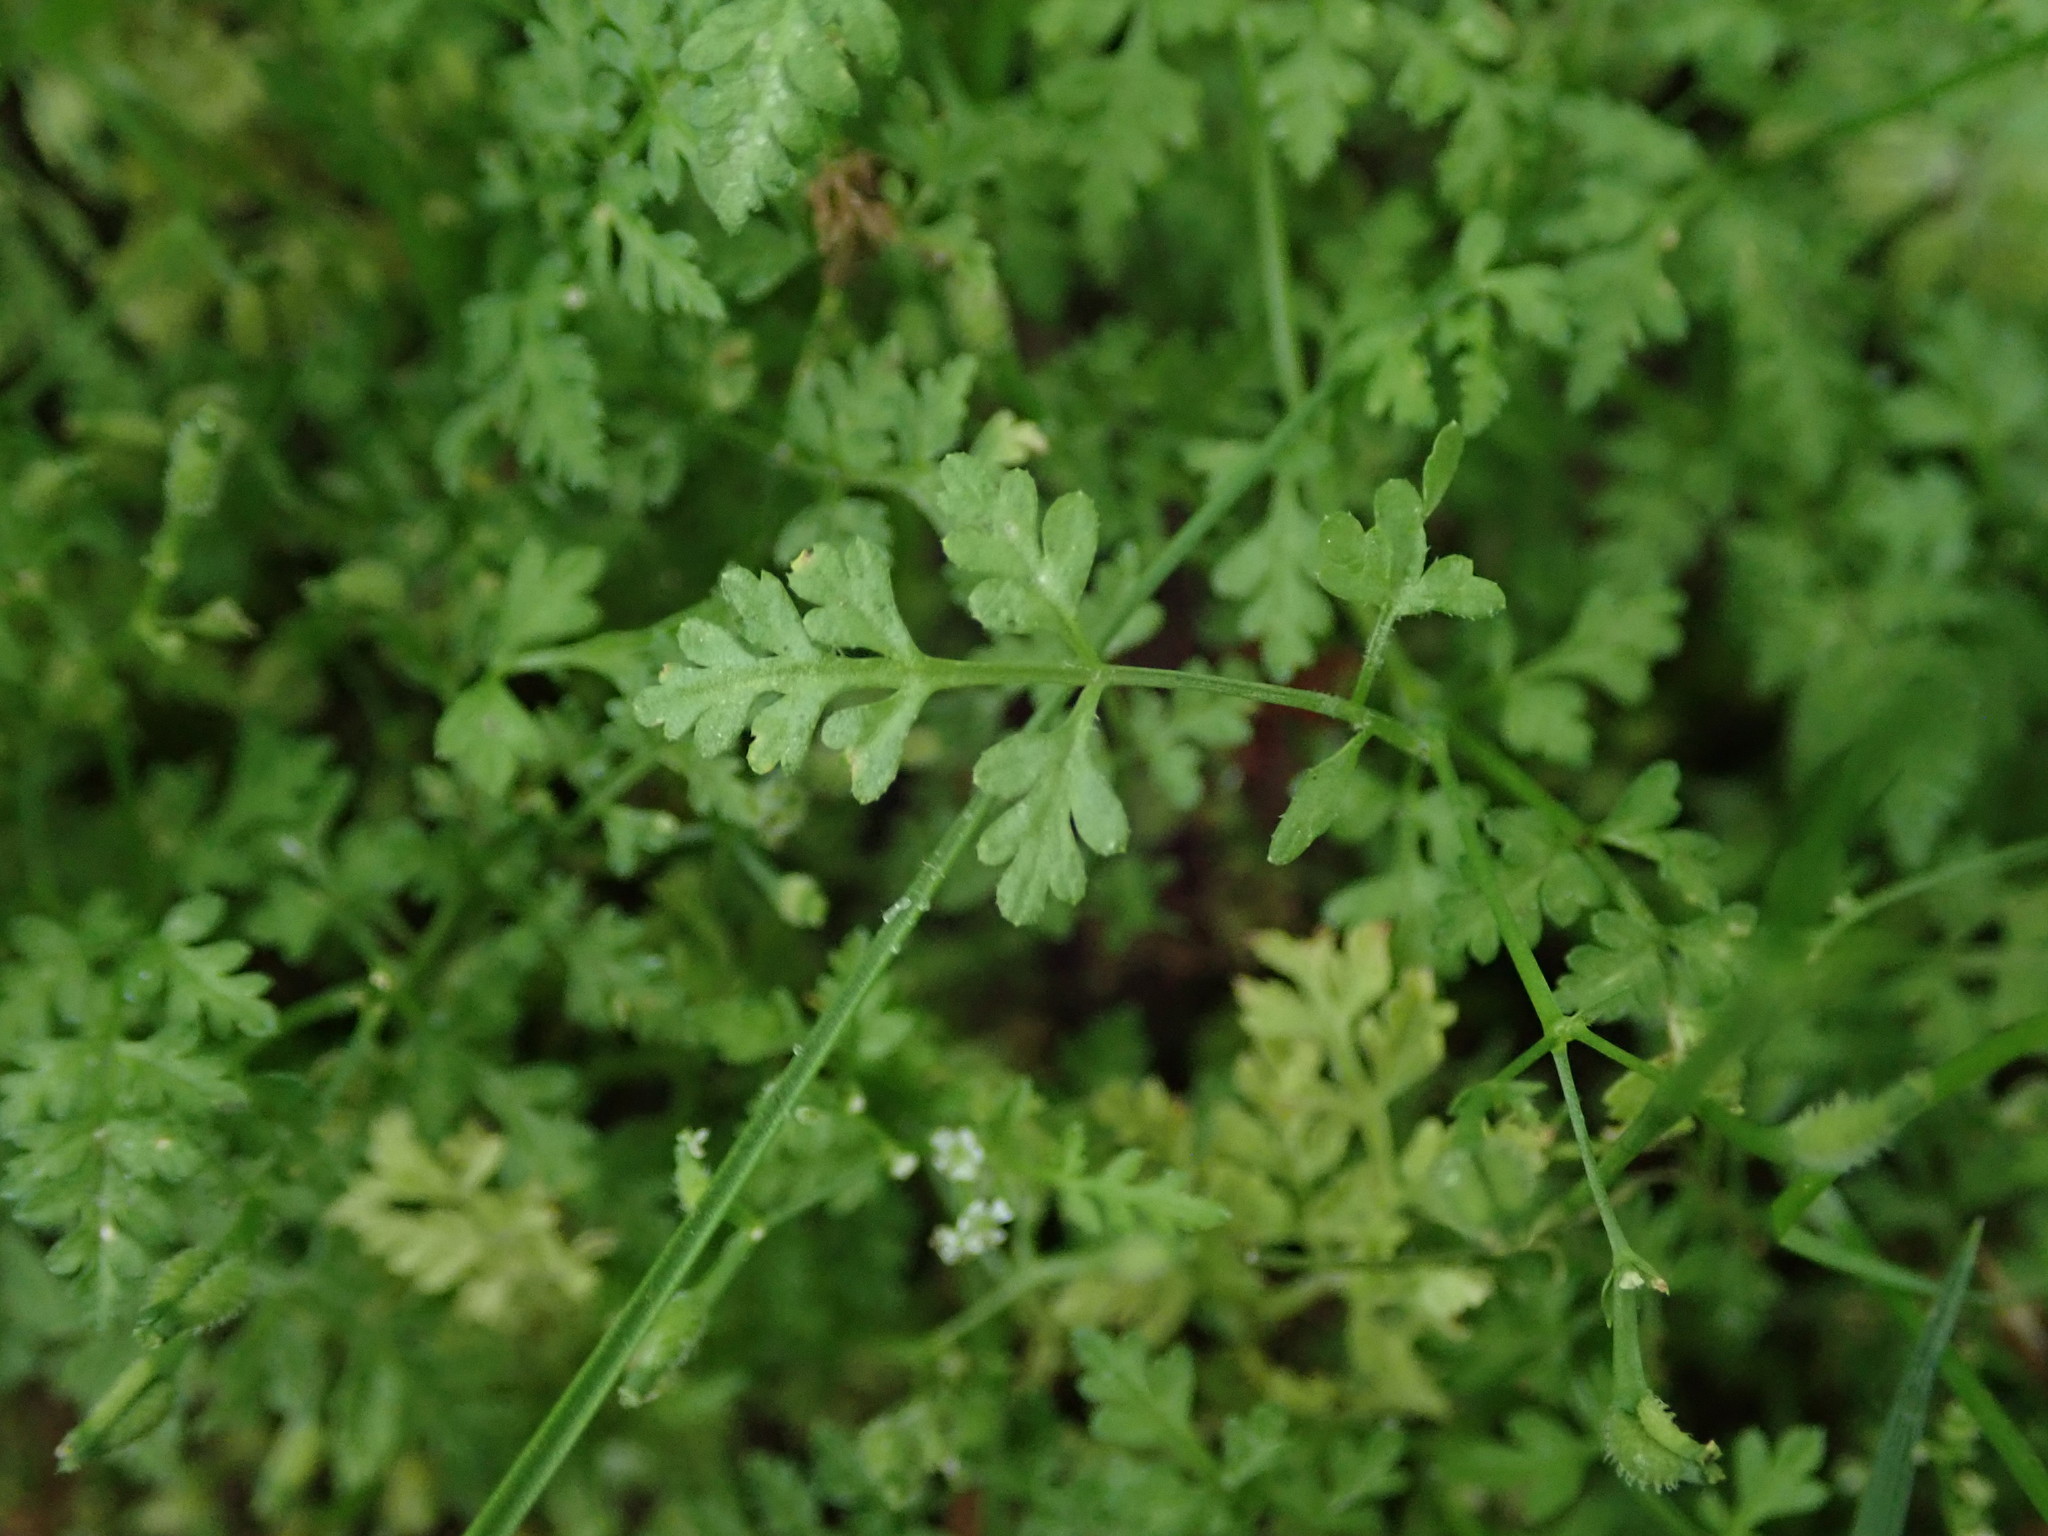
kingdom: Plantae
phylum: Tracheophyta
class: Magnoliopsida
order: Apiales
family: Apiaceae
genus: Anthriscus
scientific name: Anthriscus caucalis
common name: Bur chervil
